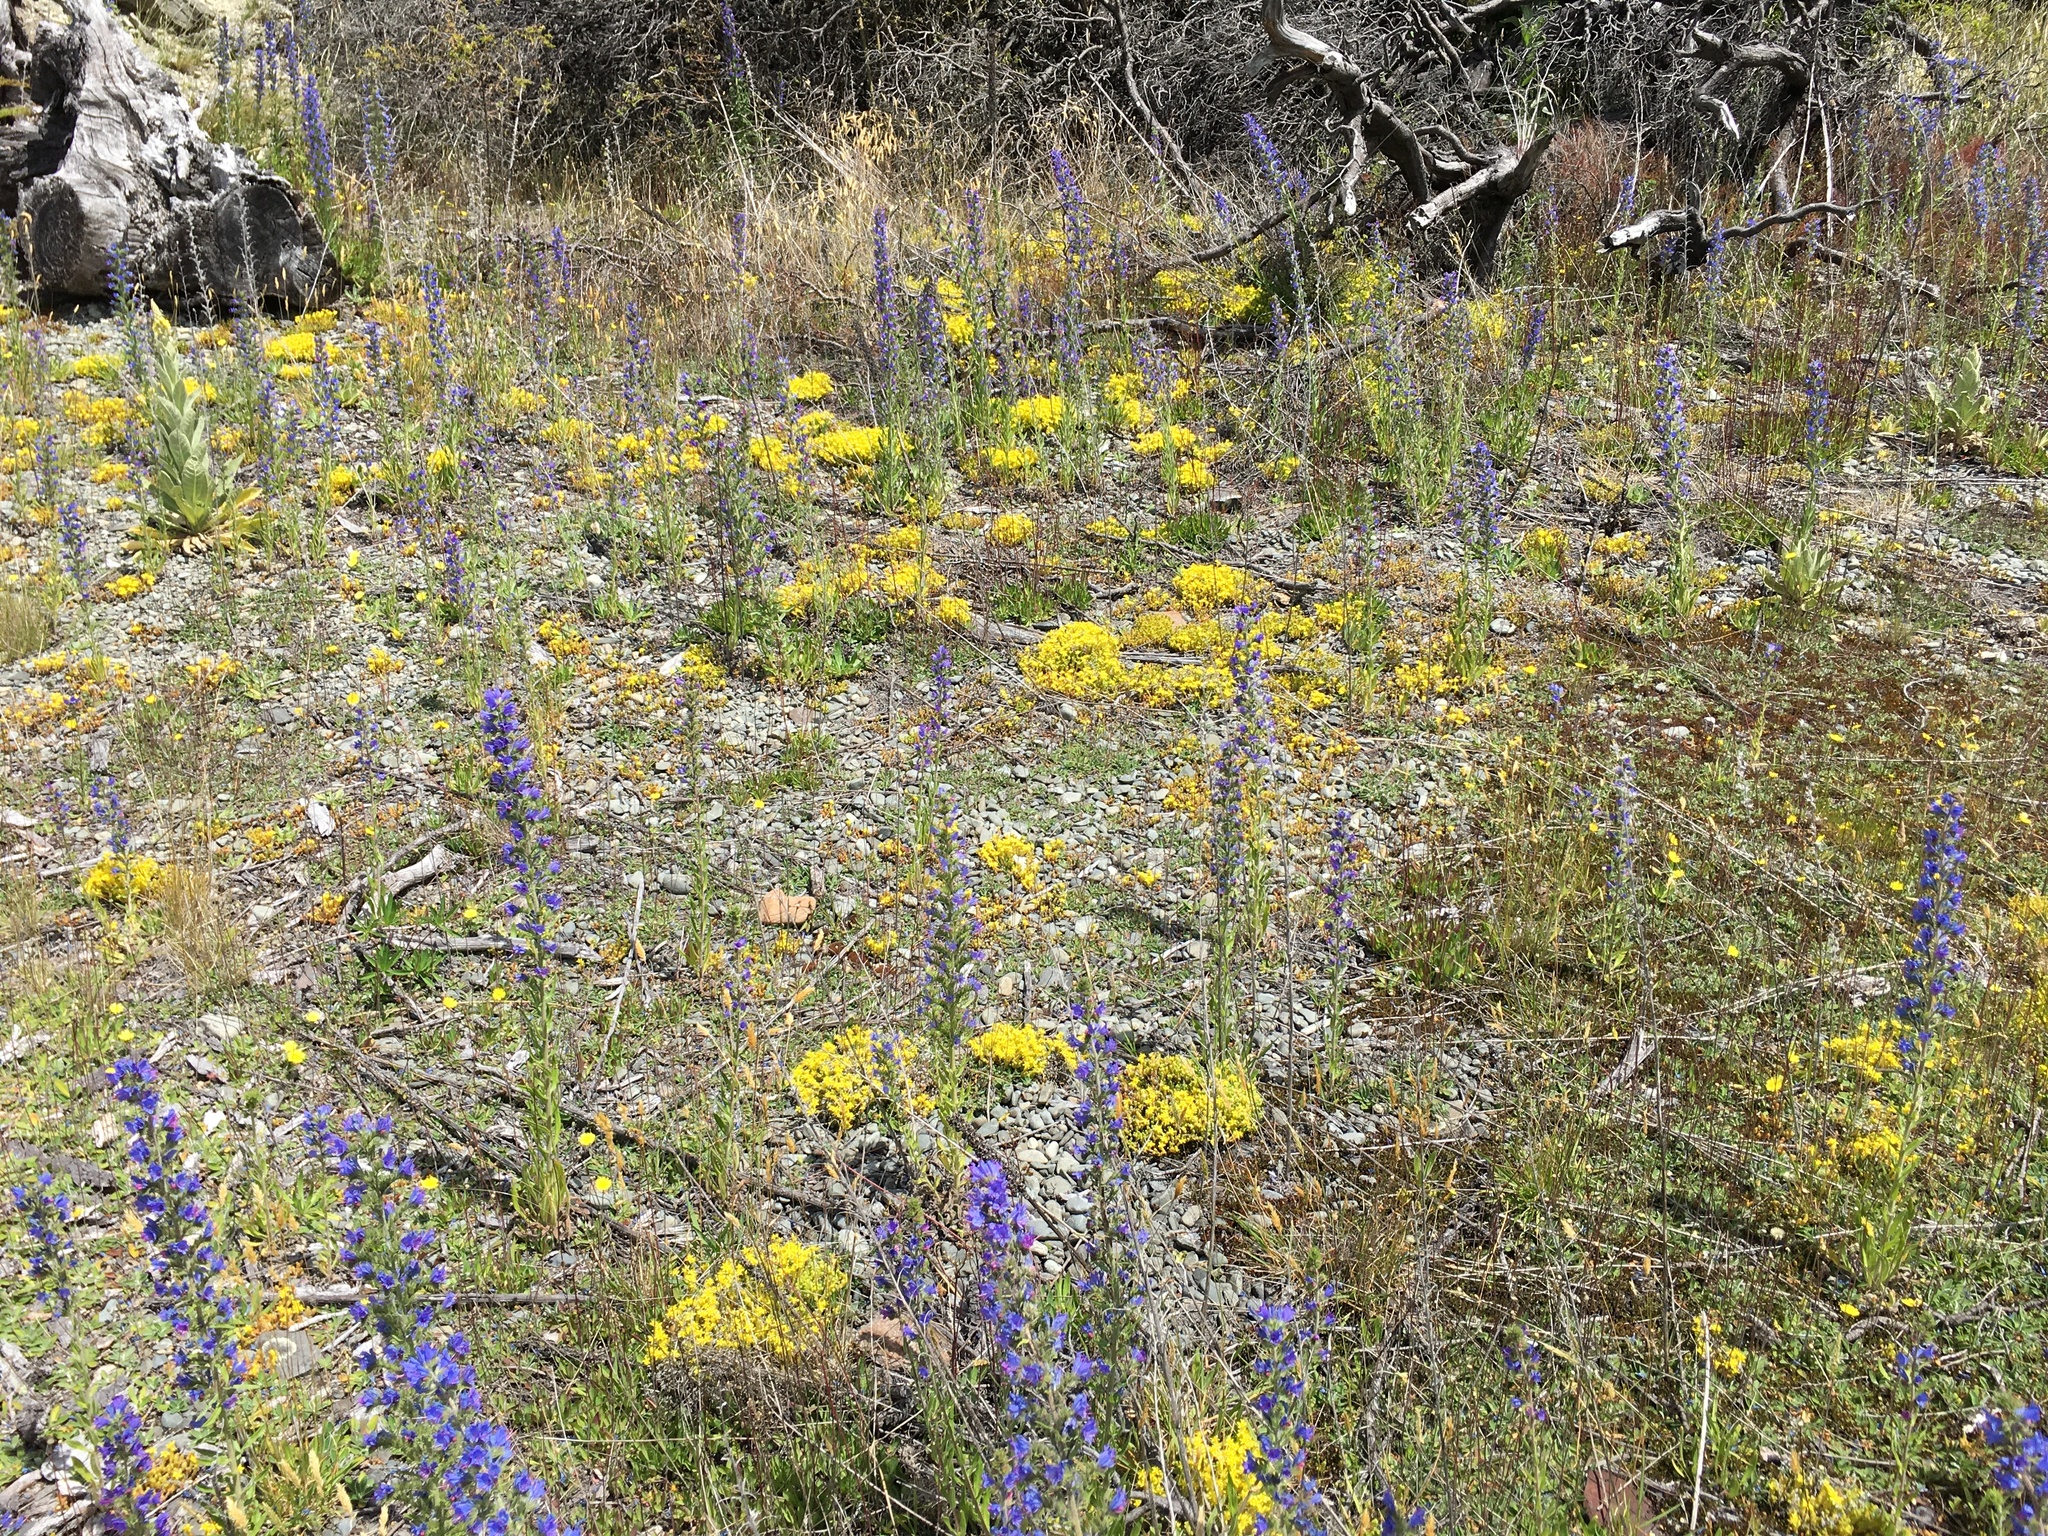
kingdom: Plantae
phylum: Tracheophyta
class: Magnoliopsida
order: Boraginales
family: Boraginaceae
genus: Echium
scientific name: Echium vulgare
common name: Common viper's bugloss
